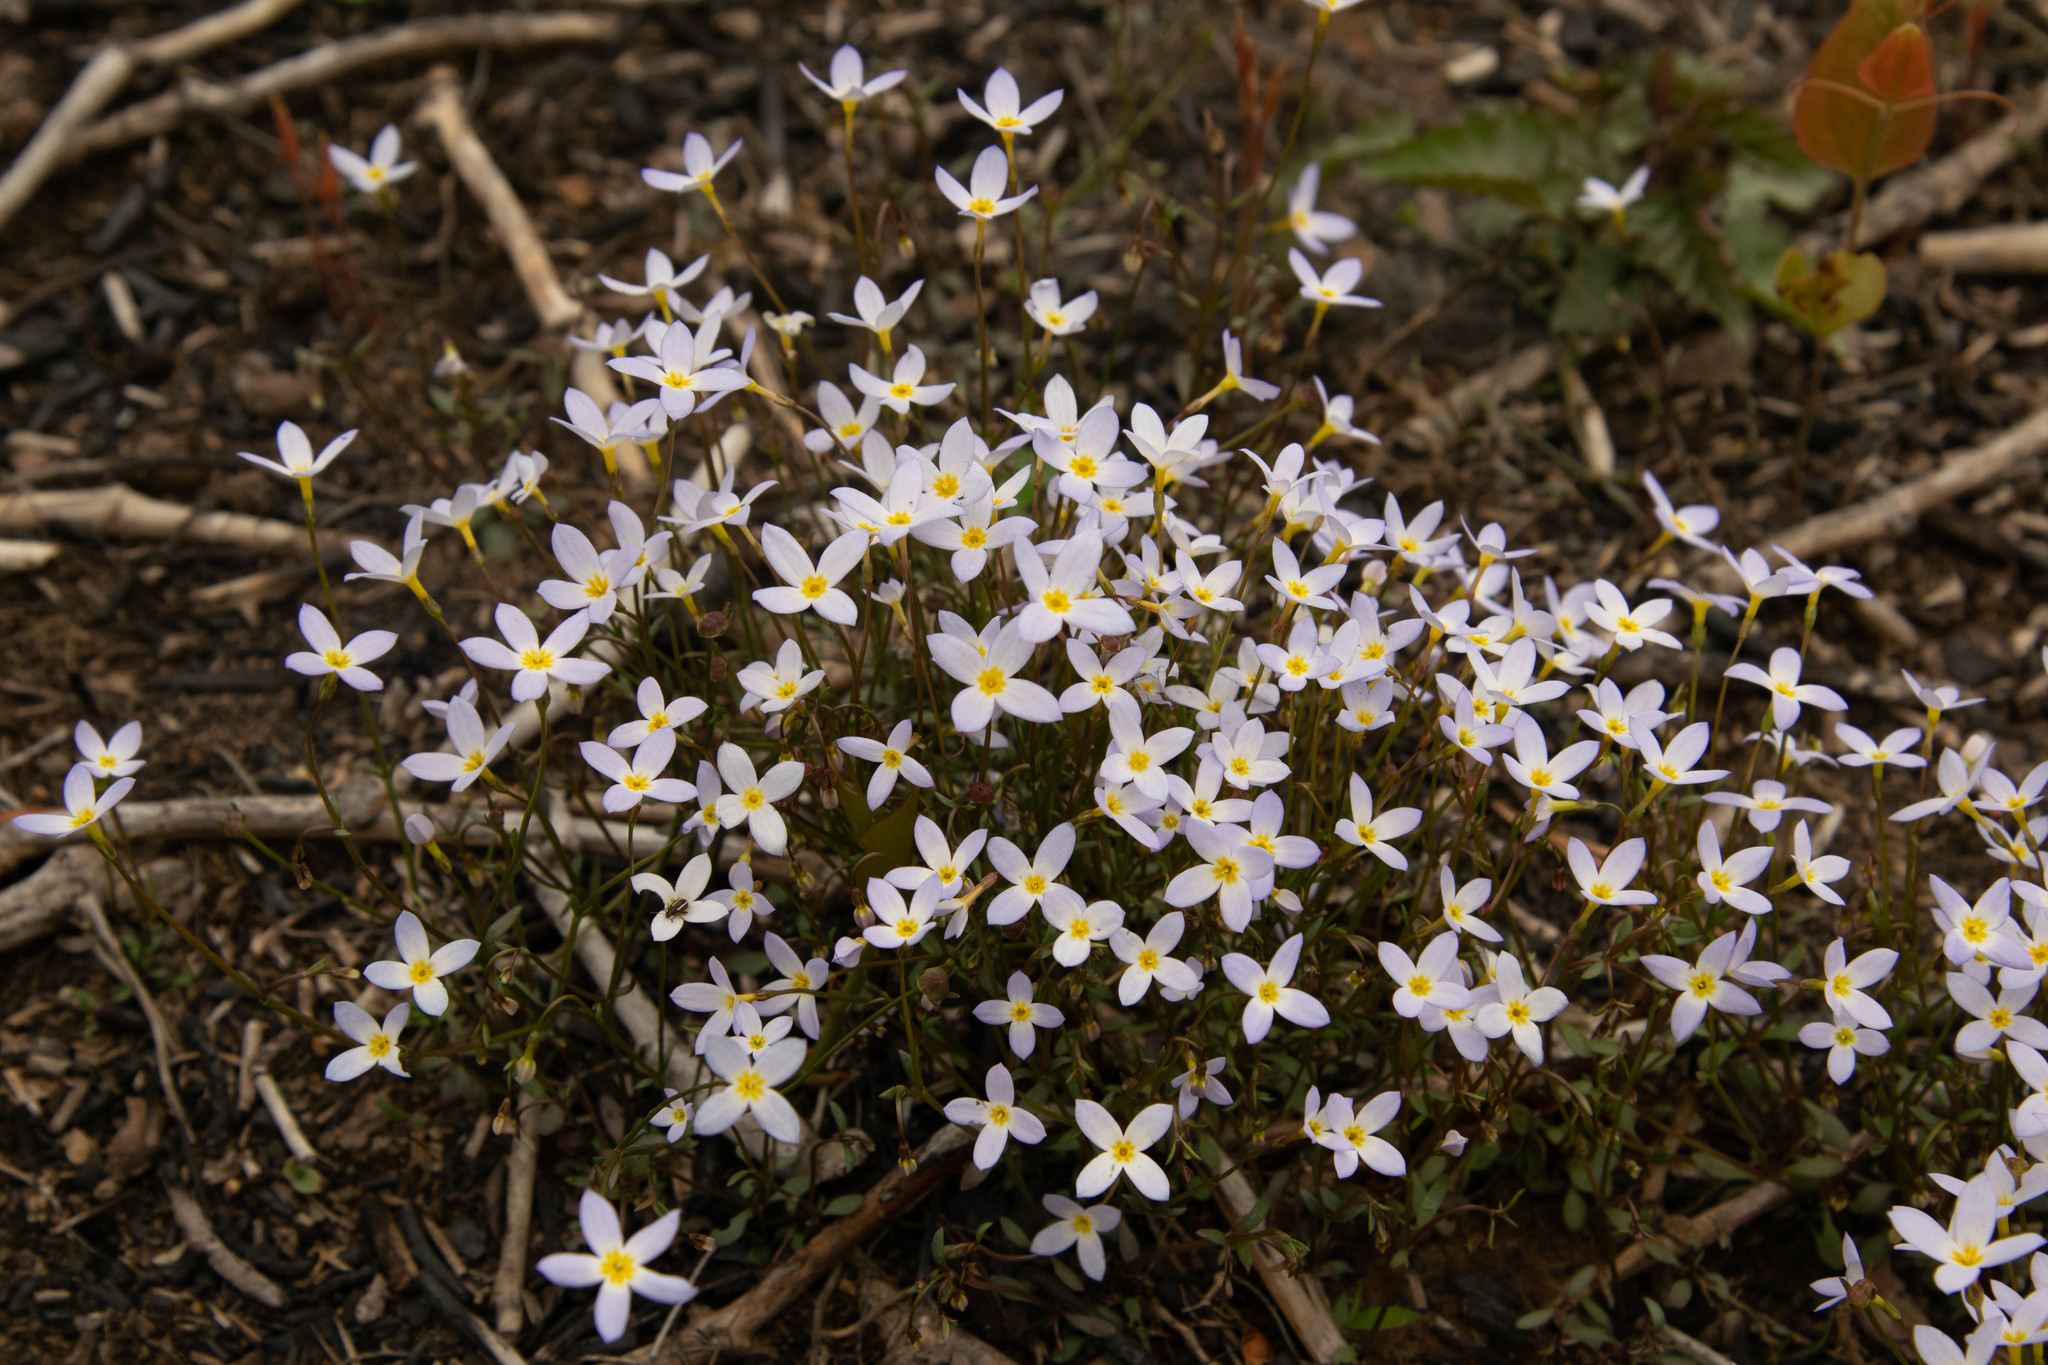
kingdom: Plantae
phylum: Tracheophyta
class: Magnoliopsida
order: Gentianales
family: Rubiaceae
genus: Houstonia
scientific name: Houstonia caerulea
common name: Bluets
